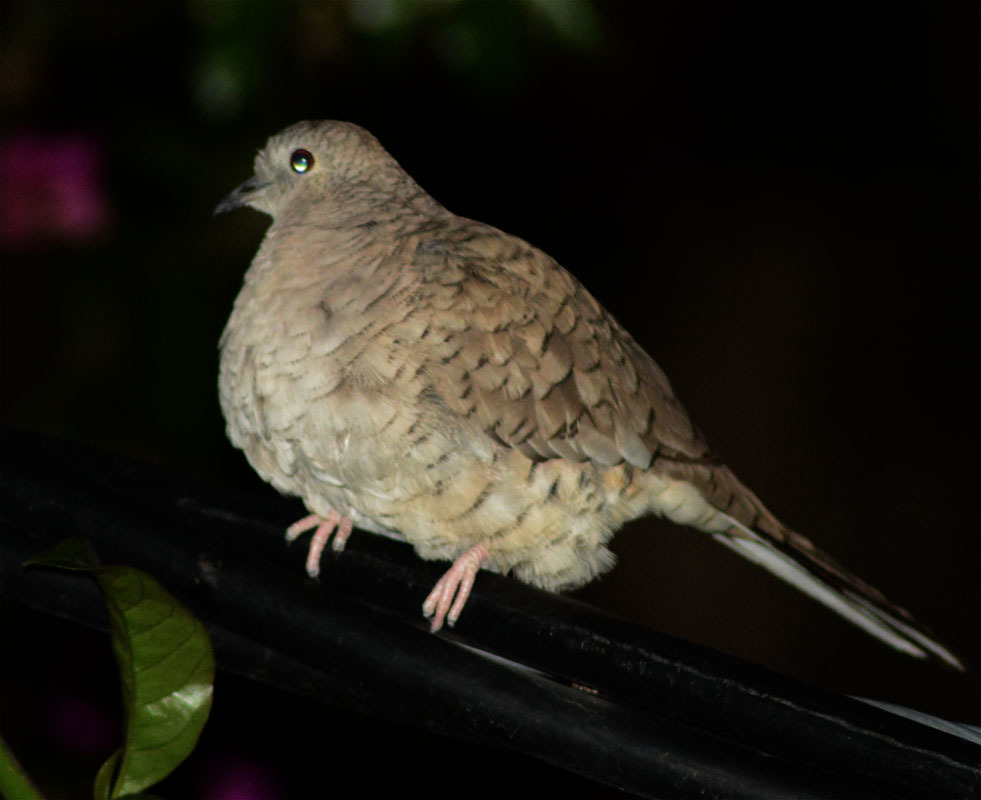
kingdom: Animalia
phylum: Chordata
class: Aves
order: Columbiformes
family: Columbidae
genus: Columbina
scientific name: Columbina inca
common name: Inca dove
